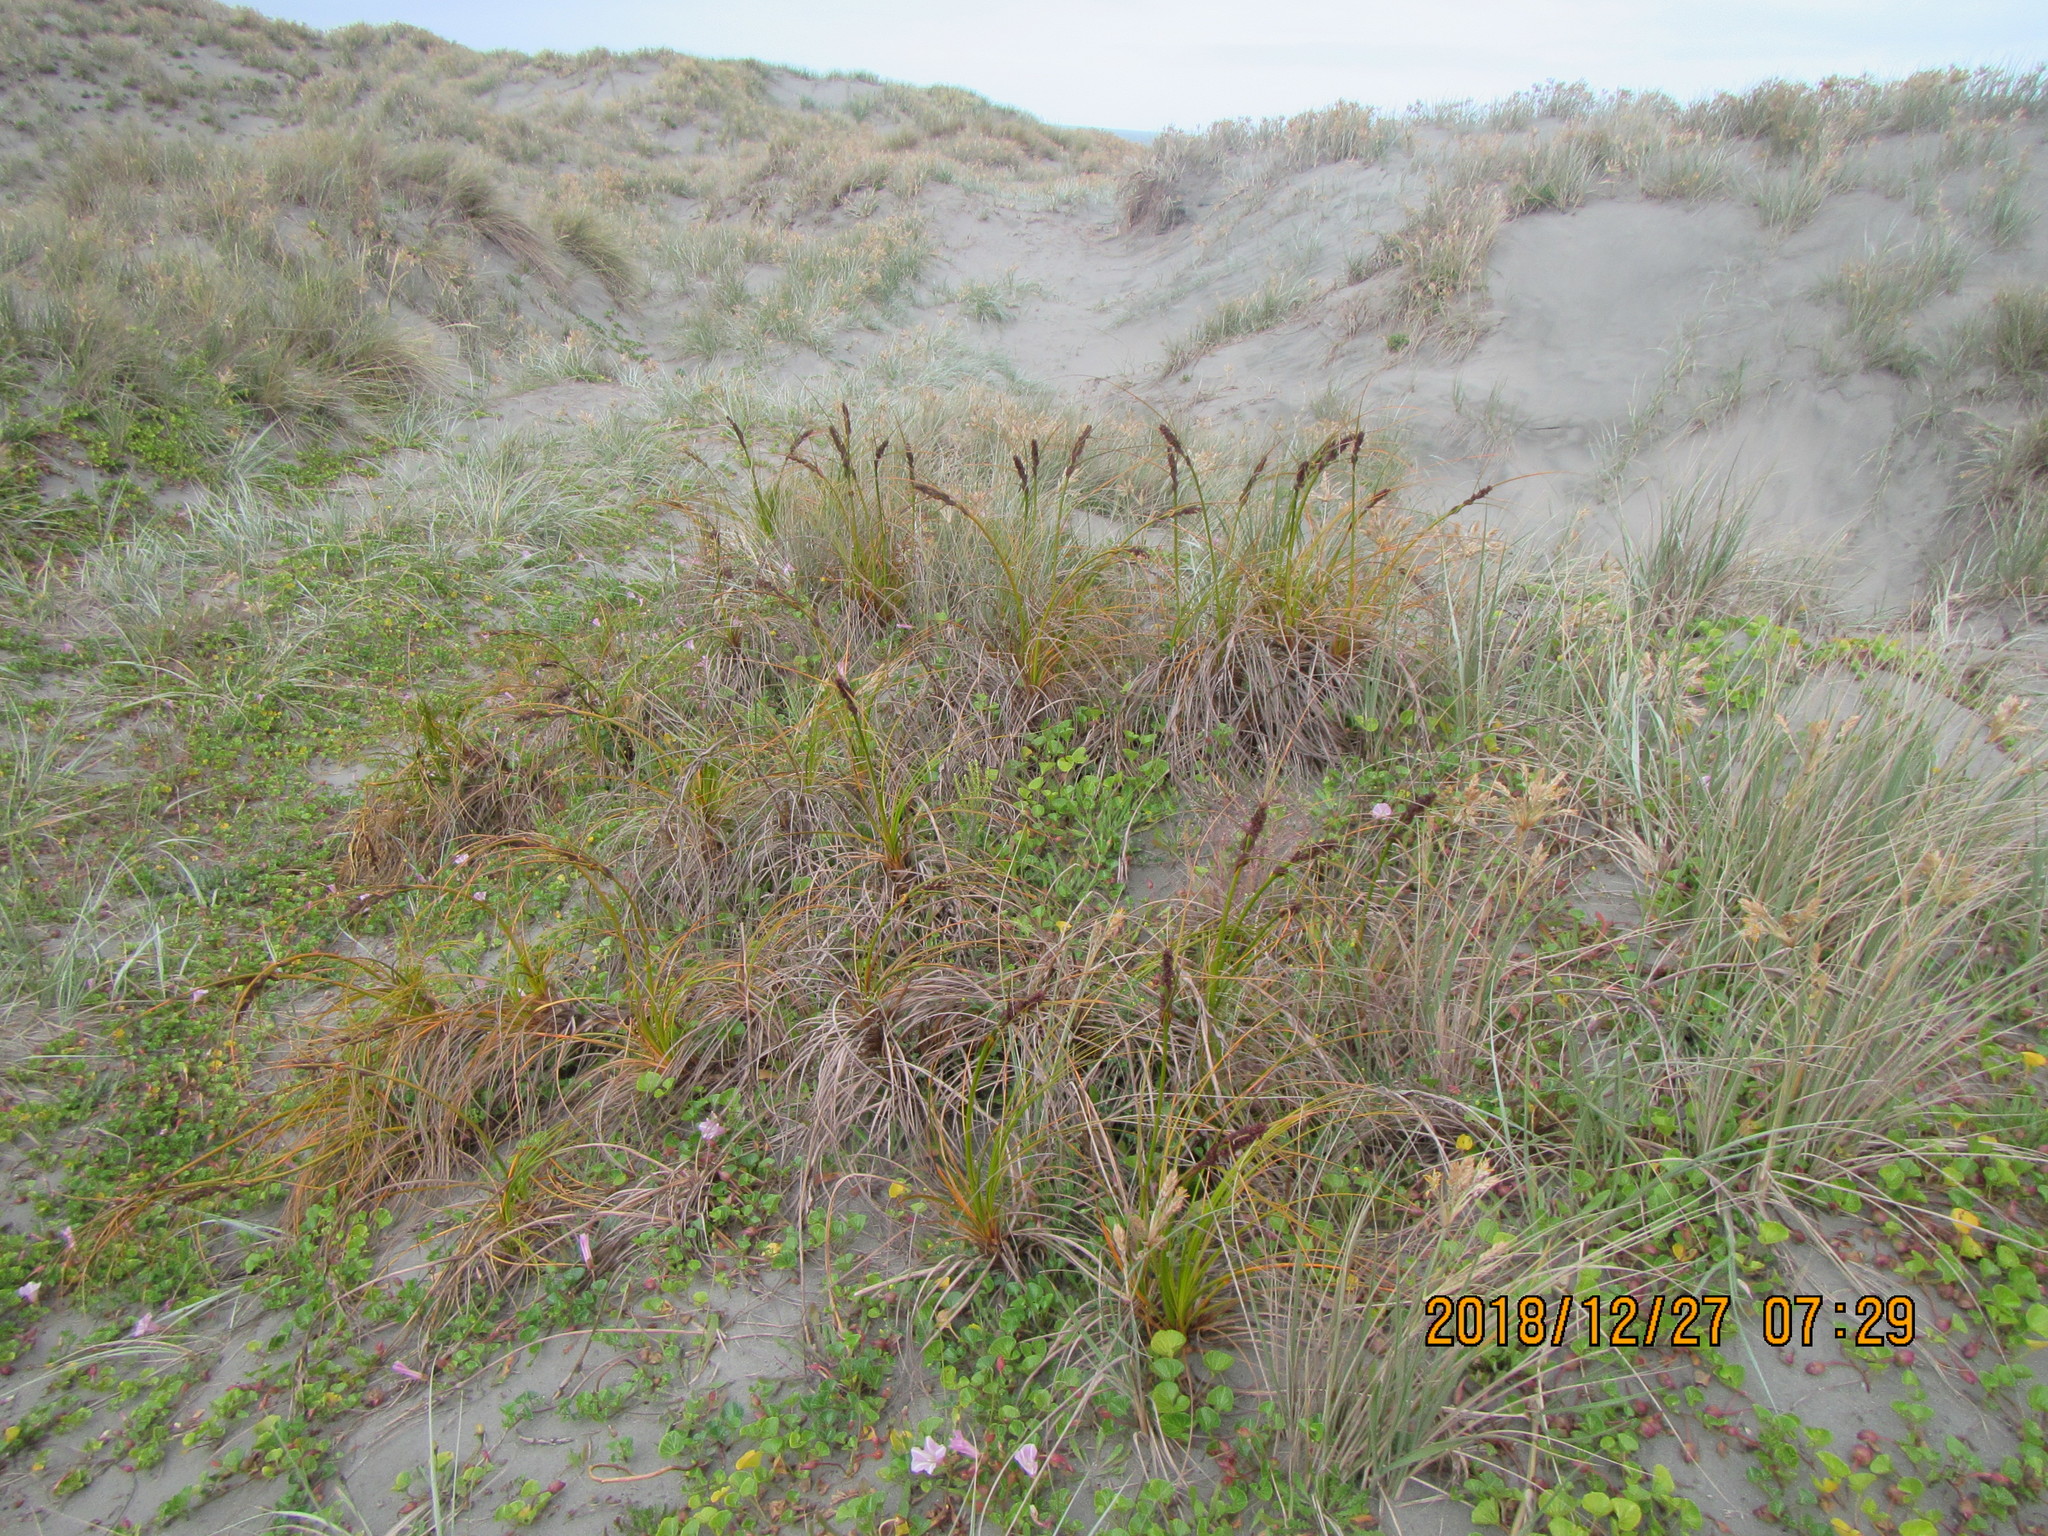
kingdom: Plantae
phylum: Tracheophyta
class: Liliopsida
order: Poales
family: Cyperaceae
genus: Ficinia
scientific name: Ficinia spiralis
